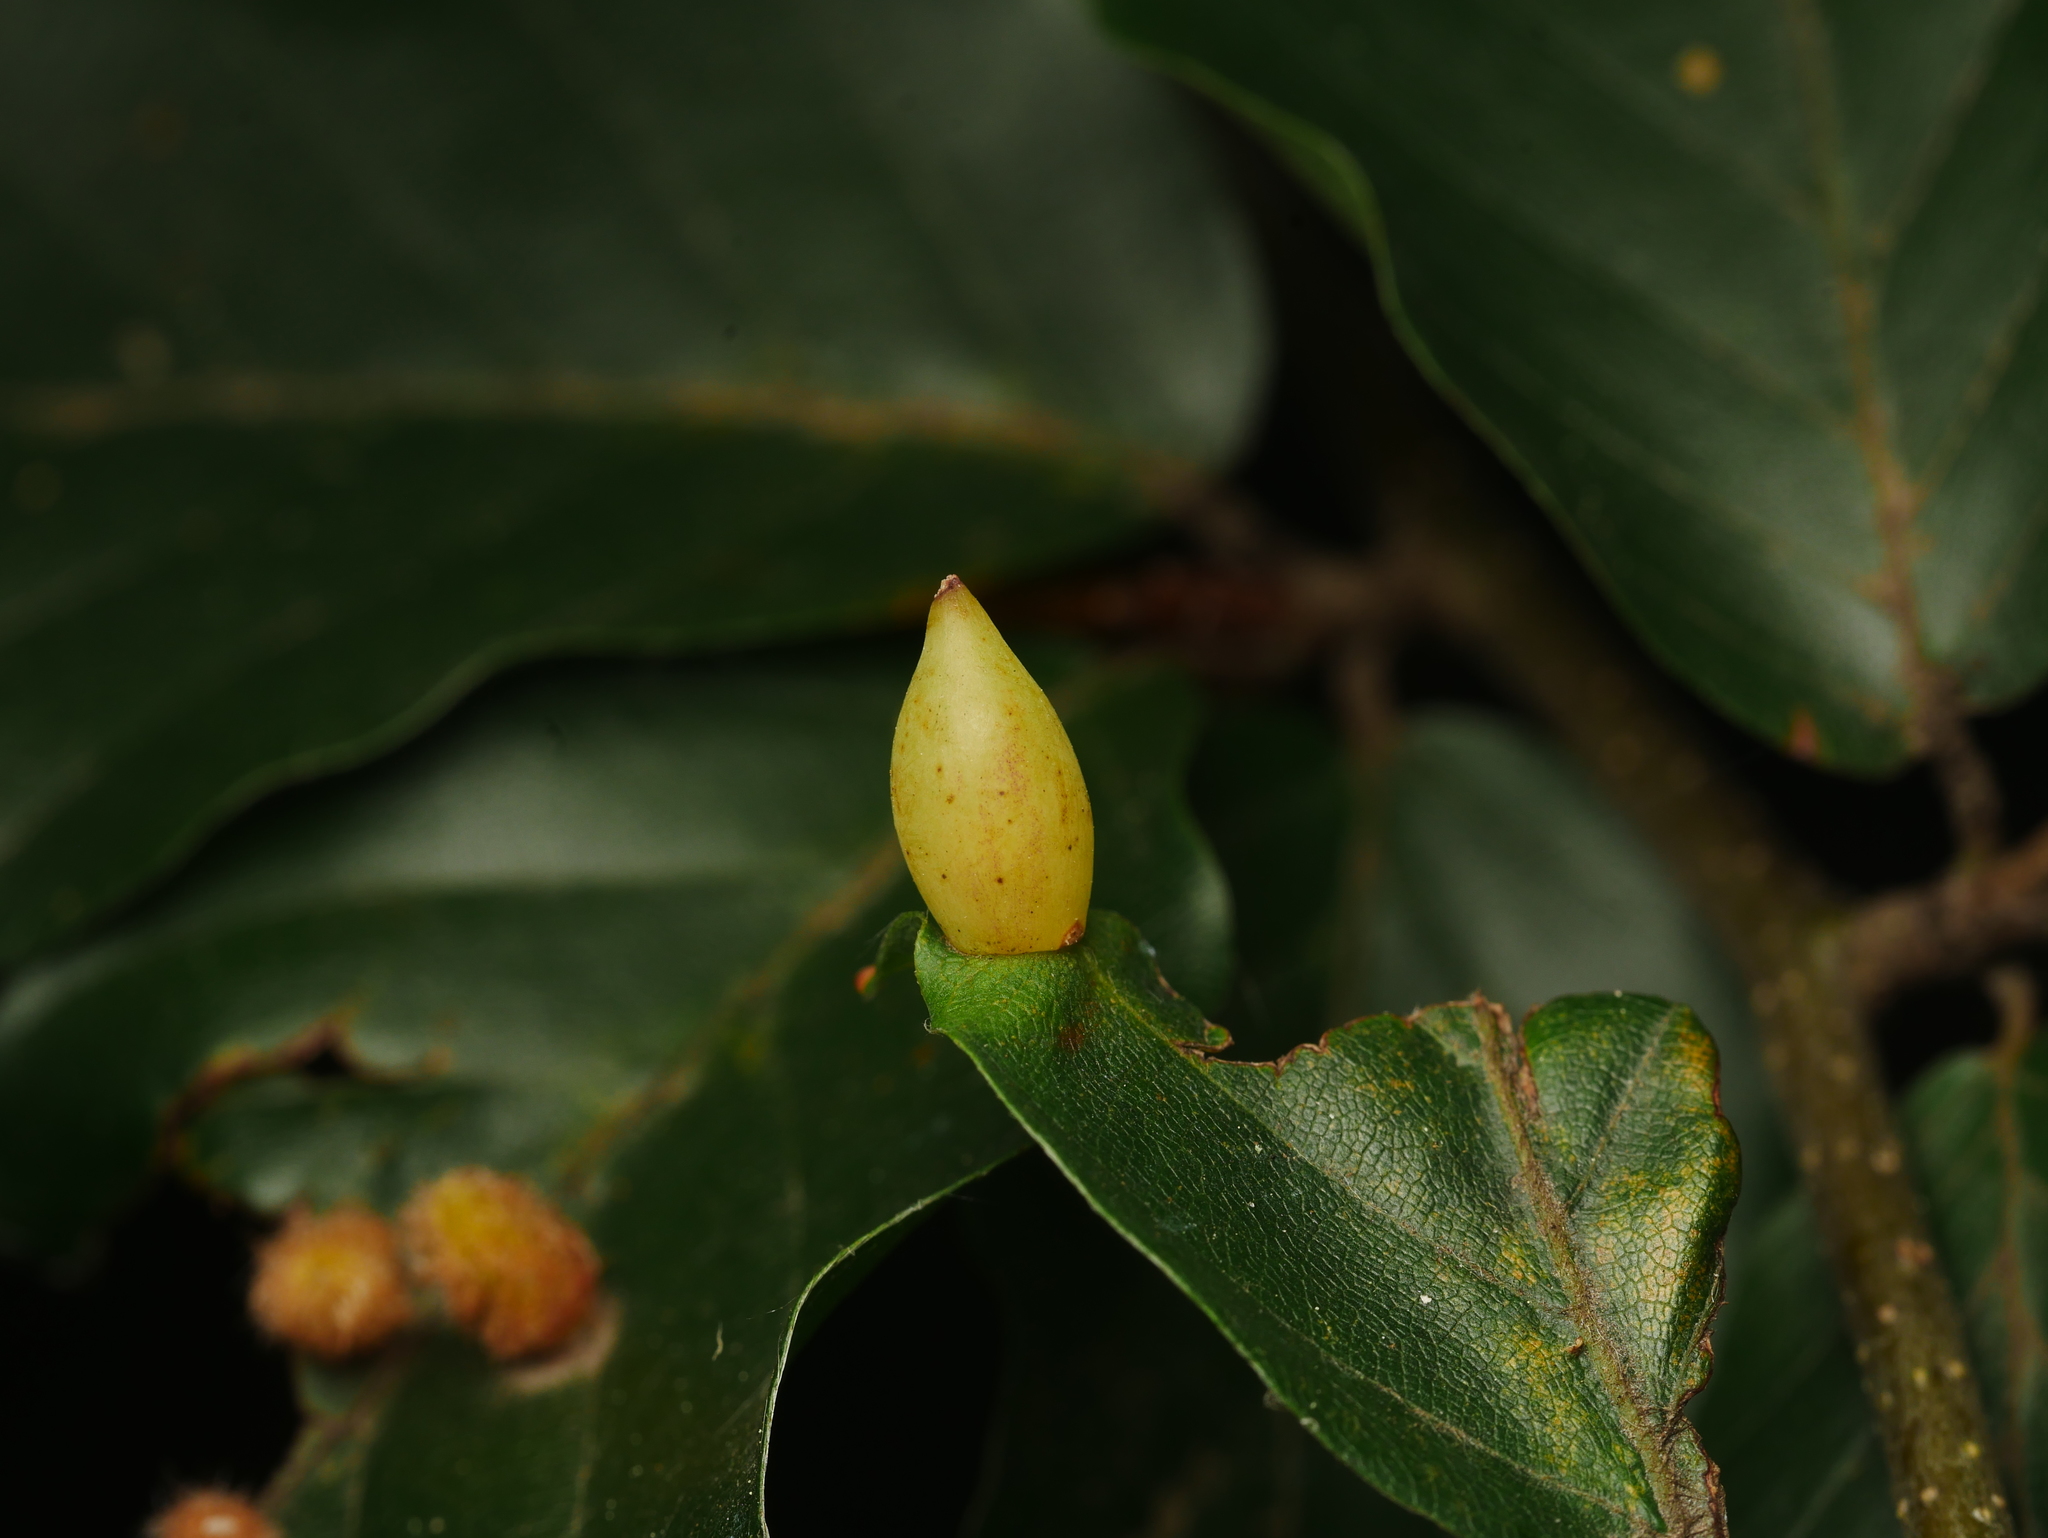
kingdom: Animalia
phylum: Arthropoda
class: Insecta
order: Diptera
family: Cecidomyiidae
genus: Mikiola
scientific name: Mikiola fagi
